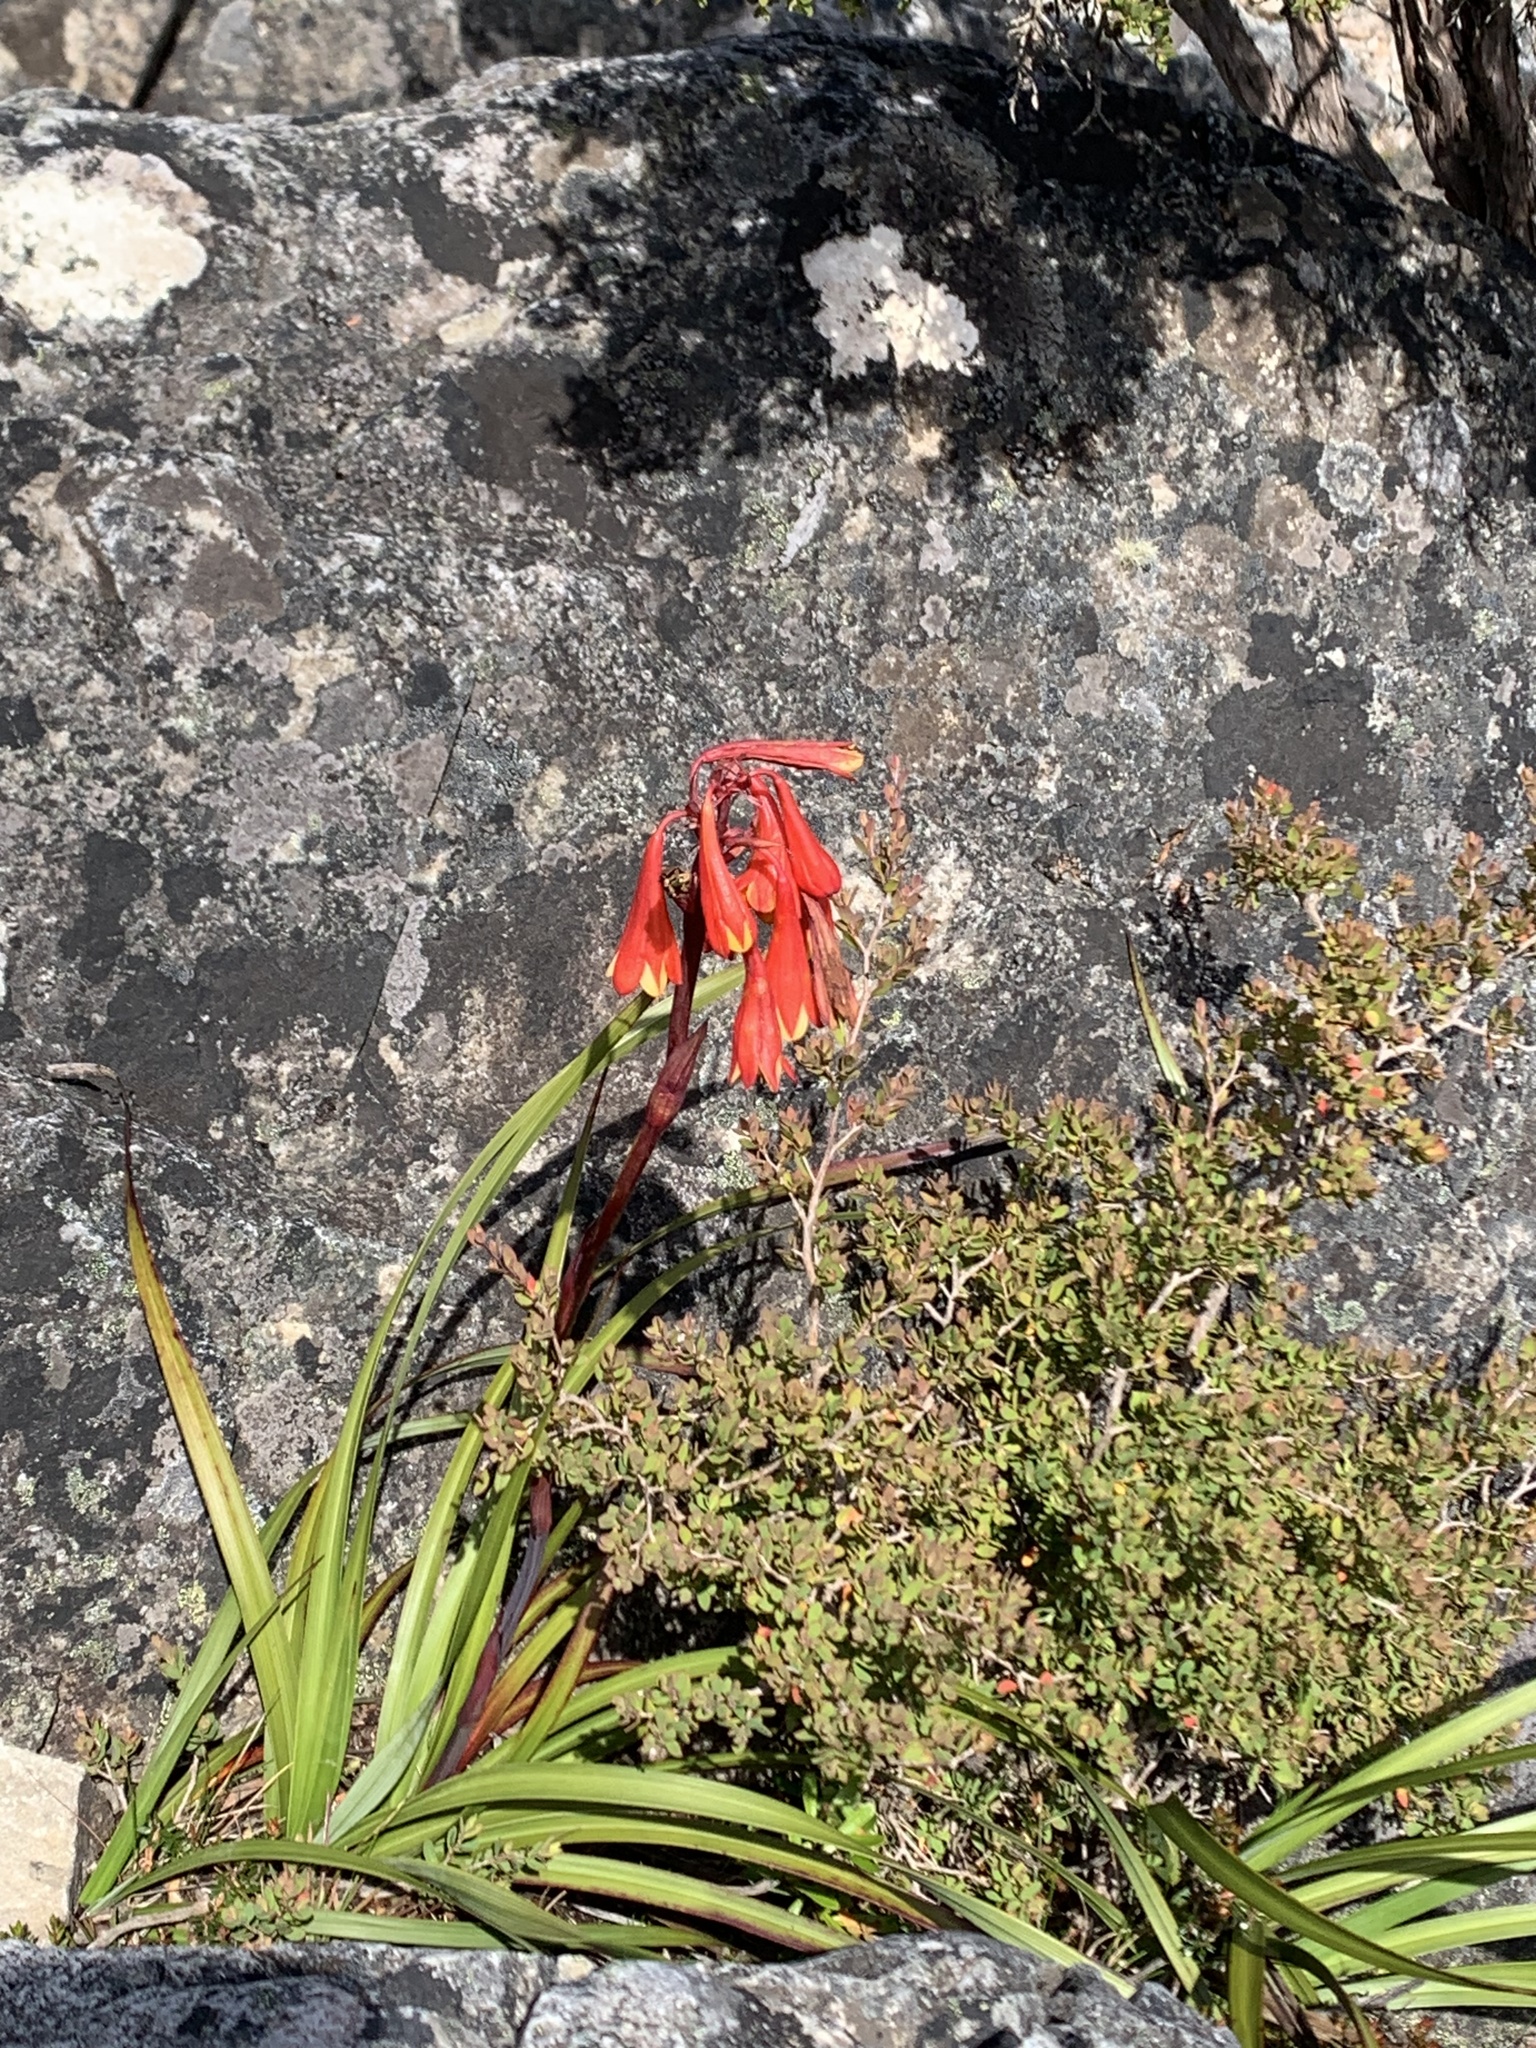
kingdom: Plantae
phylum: Tracheophyta
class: Liliopsida
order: Asparagales
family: Blandfordiaceae
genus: Blandfordia
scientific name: Blandfordia punicea
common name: Tasmanian christmas-bell
